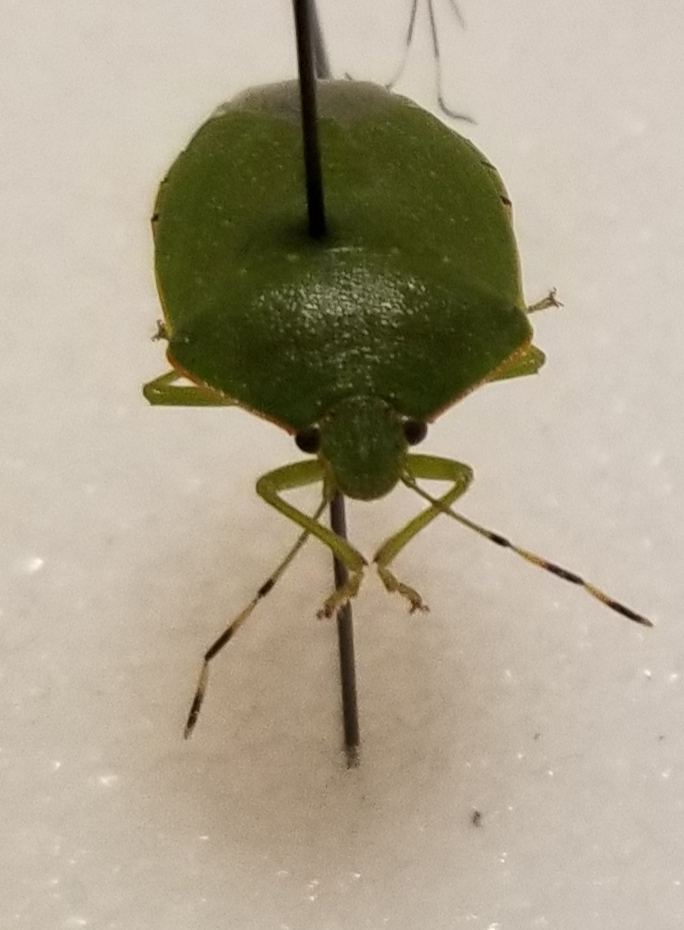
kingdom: Animalia
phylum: Arthropoda
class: Insecta
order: Hemiptera
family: Pentatomidae
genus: Chinavia
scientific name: Chinavia hilaris
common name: Green stink bug
